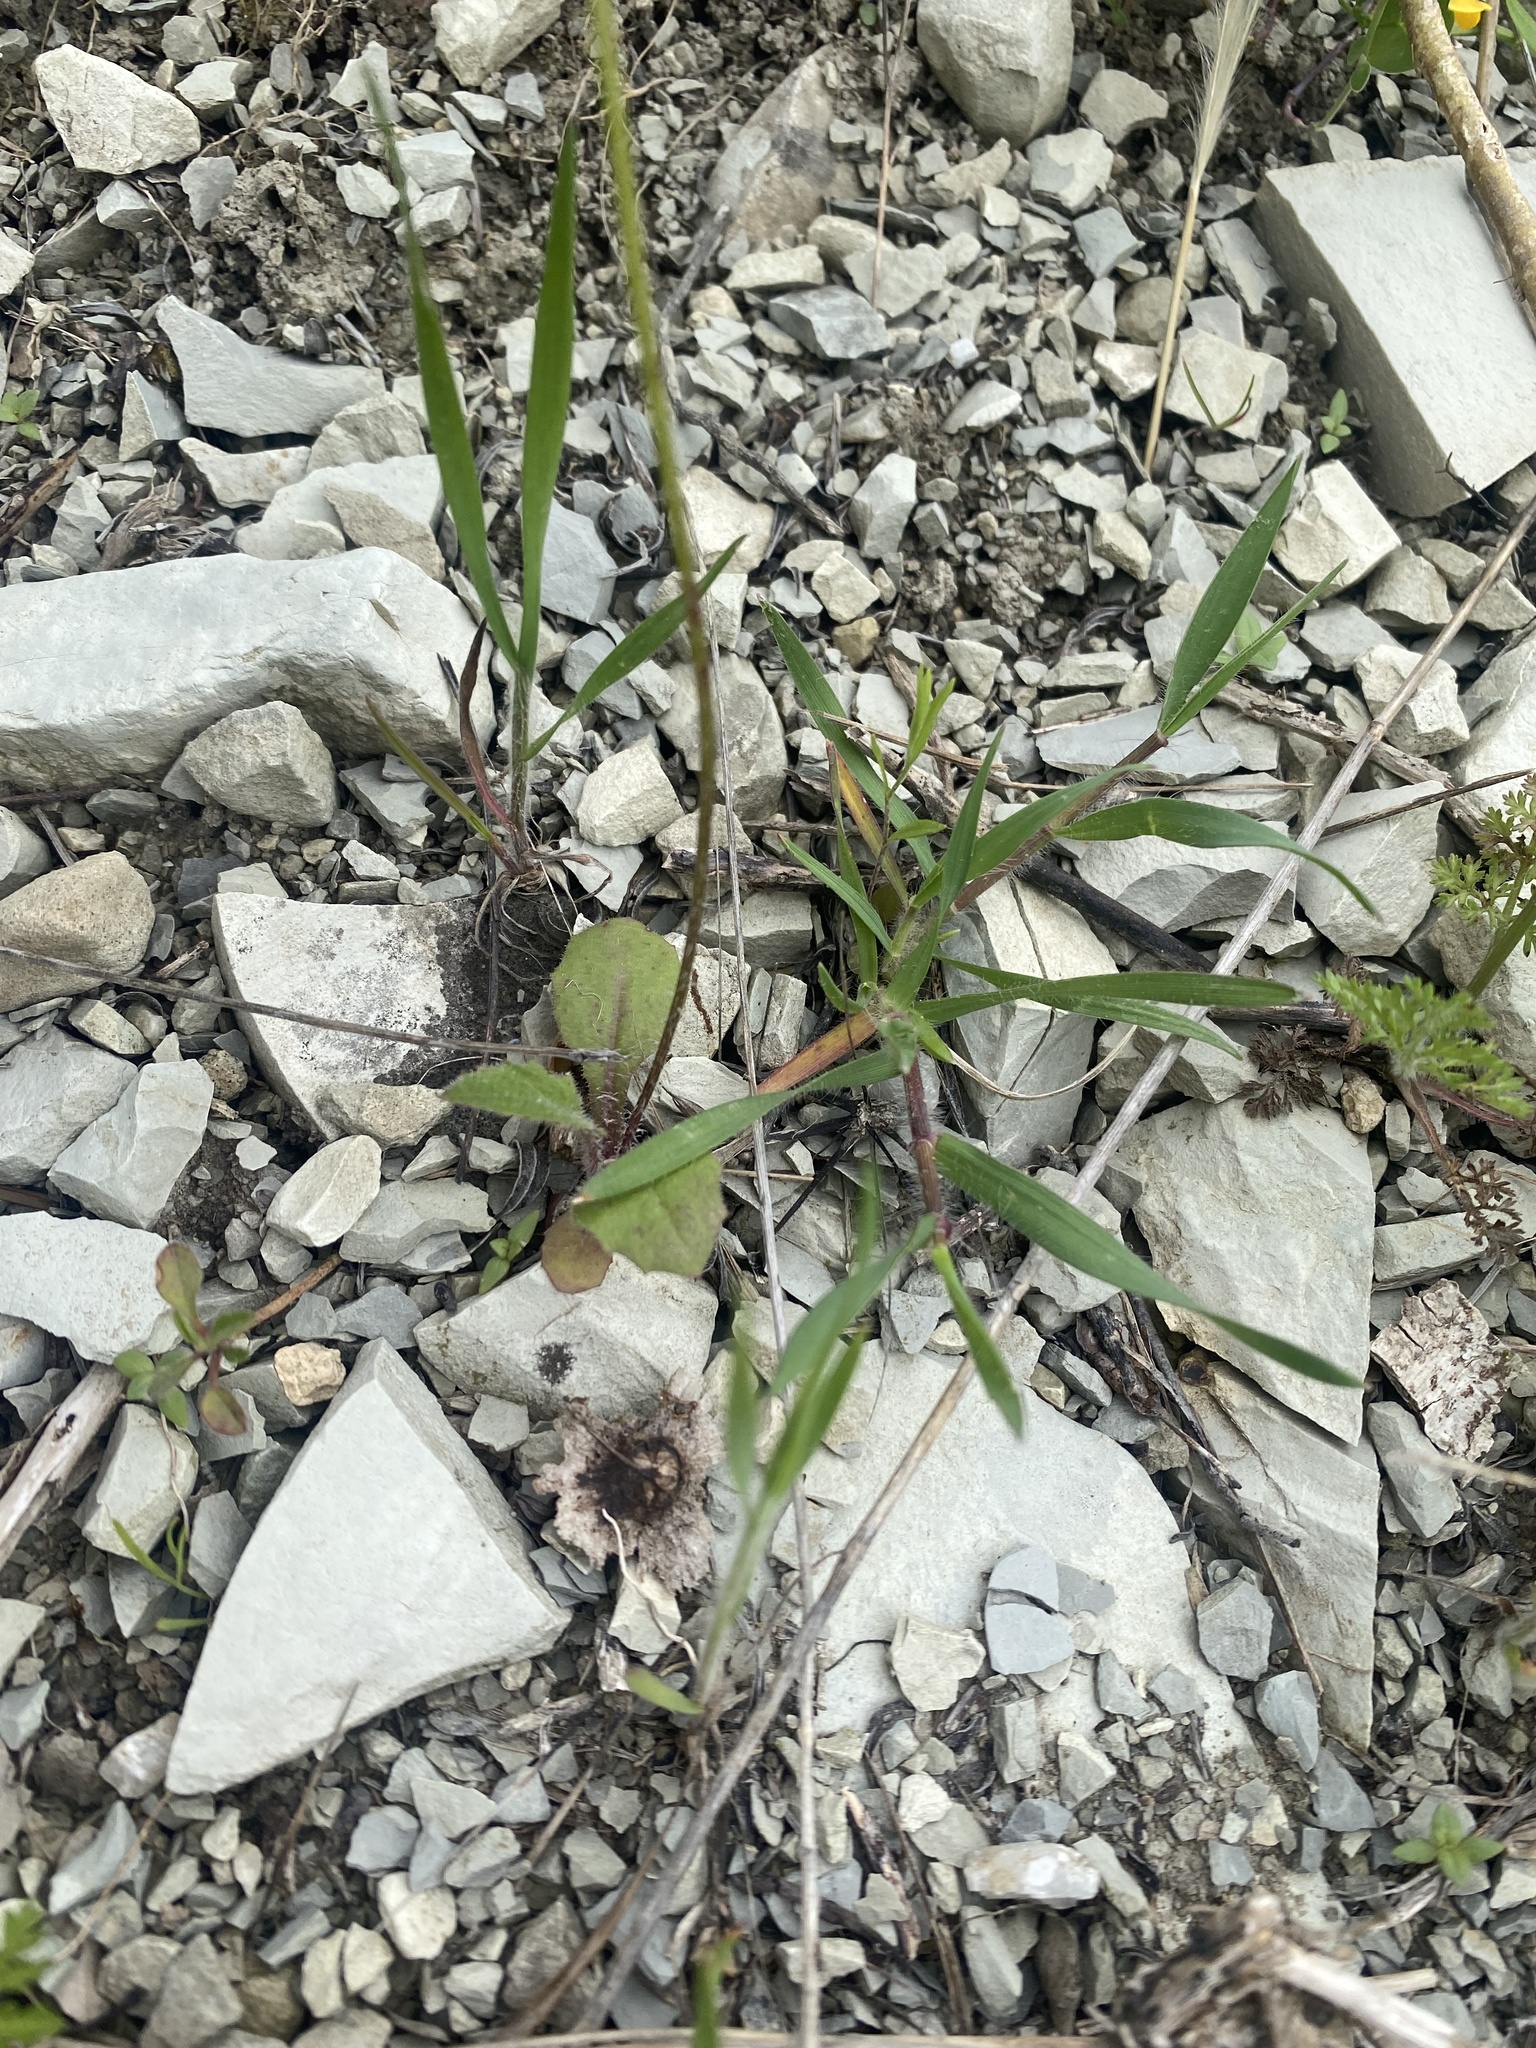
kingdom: Plantae
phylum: Tracheophyta
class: Magnoliopsida
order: Asterales
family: Asteraceae
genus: Crepis
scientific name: Crepis sancta
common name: Hawk's-beard
